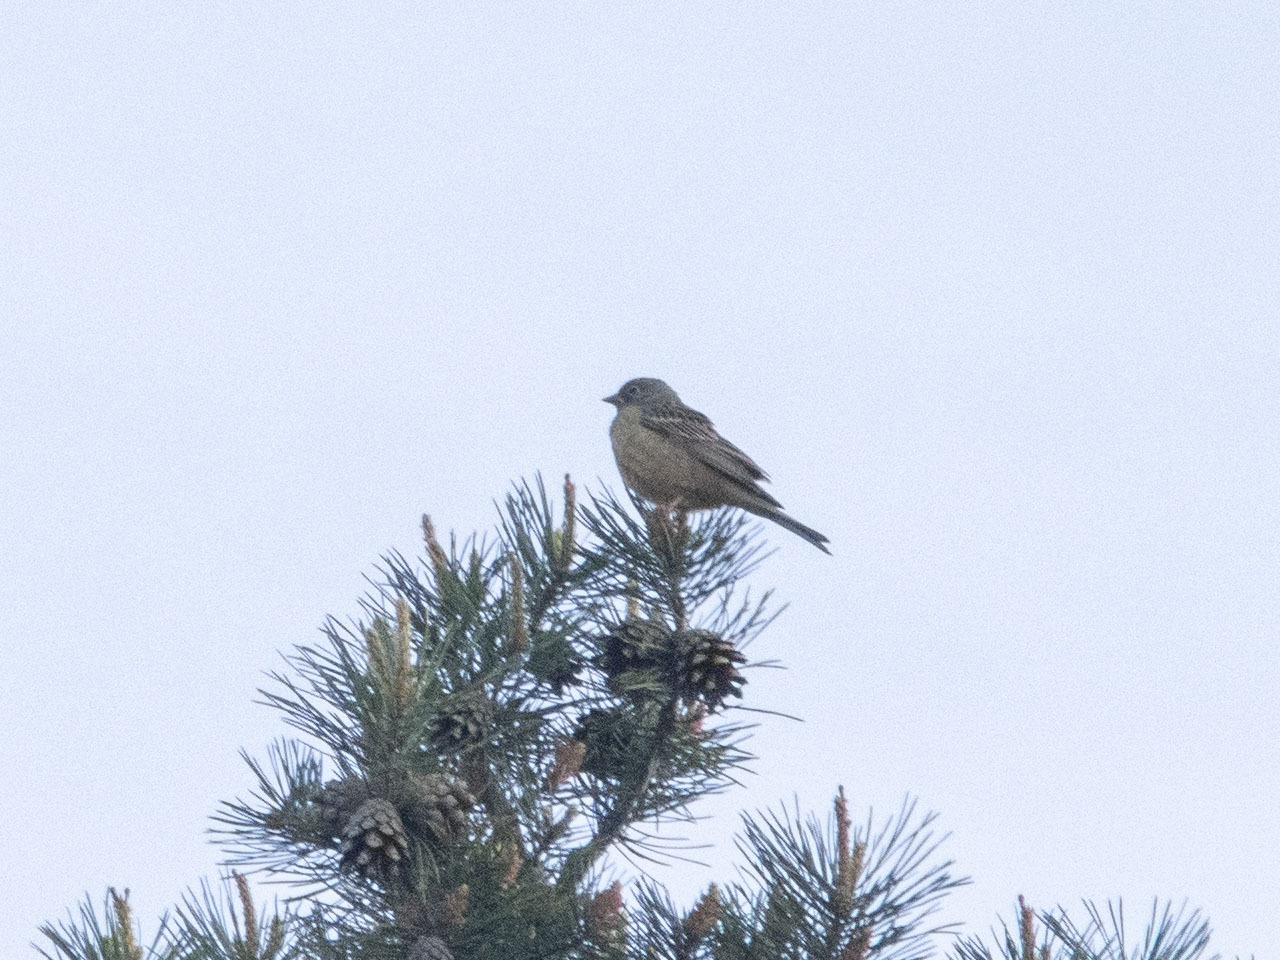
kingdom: Animalia
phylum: Chordata
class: Aves
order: Passeriformes
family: Emberizidae
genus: Emberiza
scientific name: Emberiza hortulana
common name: Ortolan bunting
